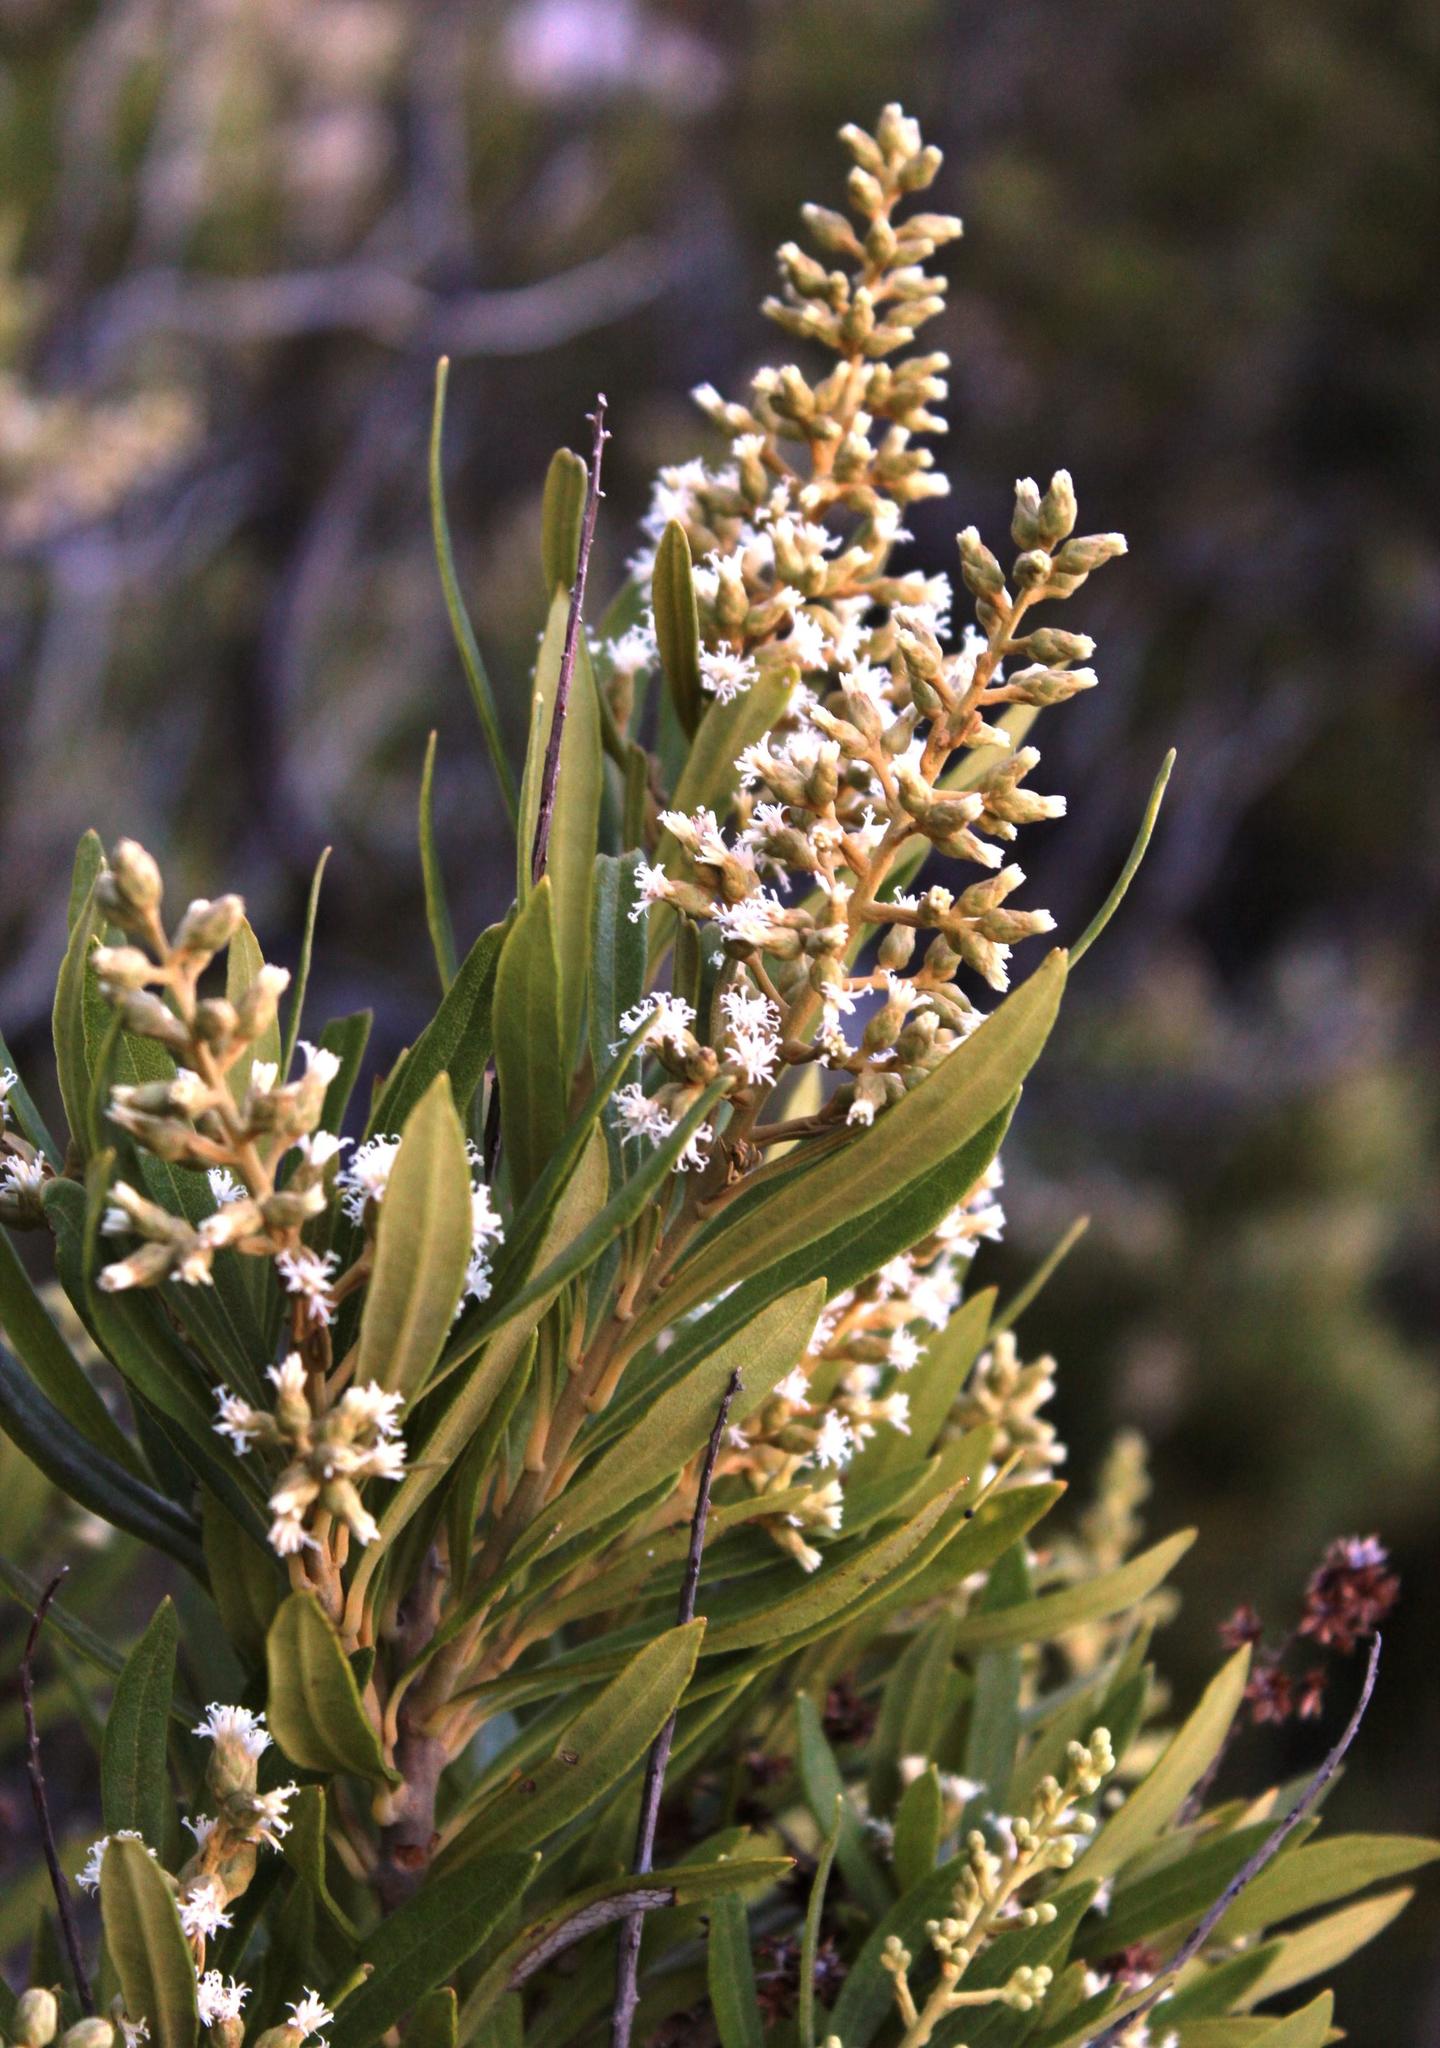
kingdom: Plantae
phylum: Tracheophyta
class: Magnoliopsida
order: Asterales
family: Asteraceae
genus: Brachylaena
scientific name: Brachylaena neriifolia
